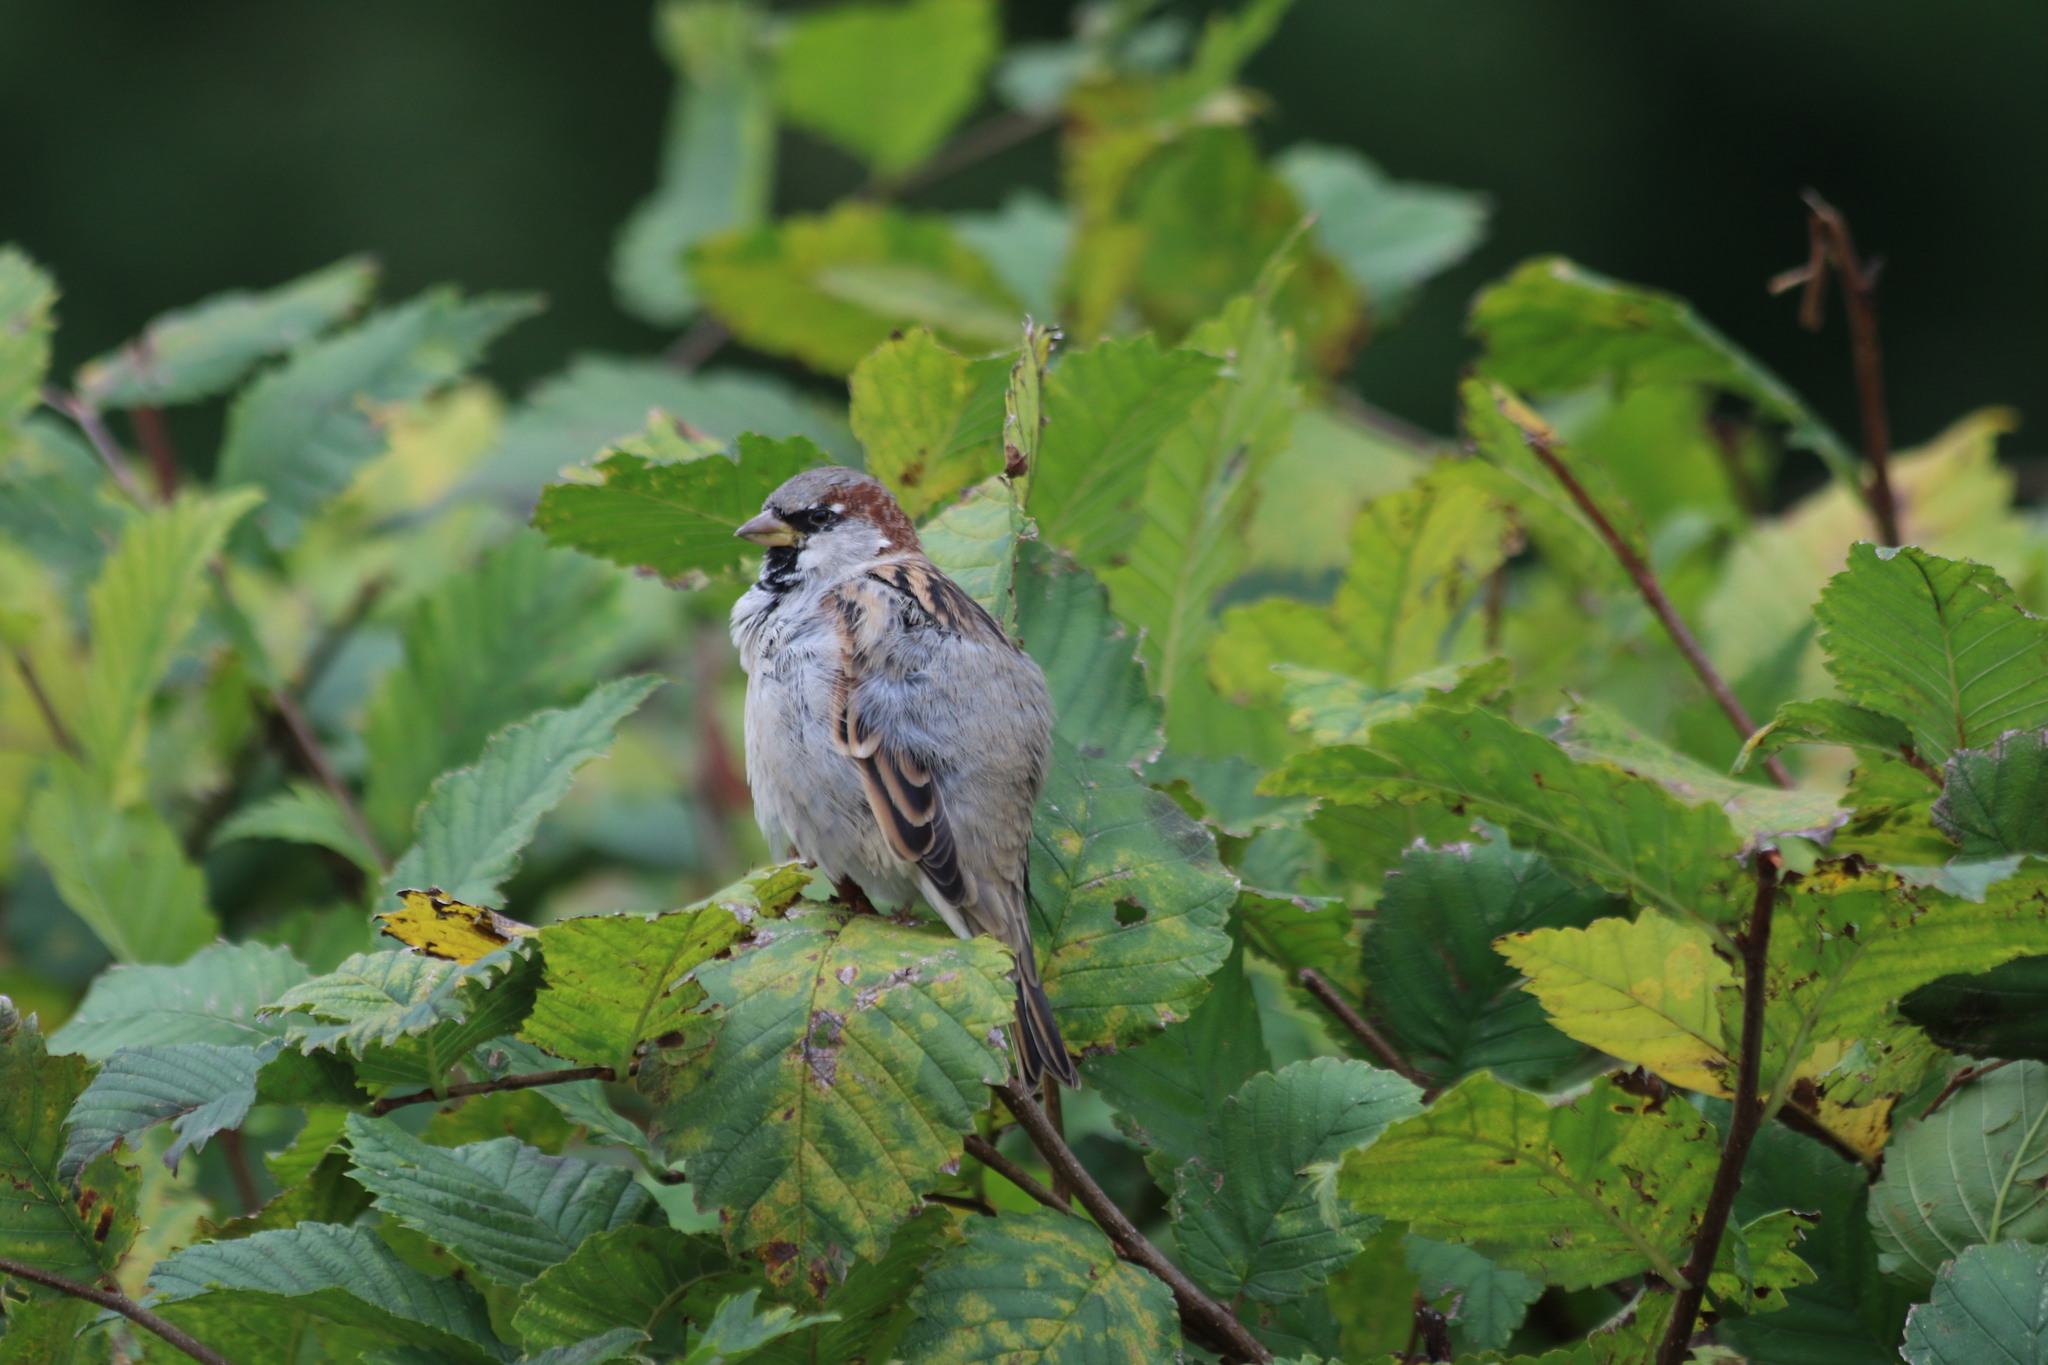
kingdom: Animalia
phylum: Chordata
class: Aves
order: Passeriformes
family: Passeridae
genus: Passer
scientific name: Passer domesticus
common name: House sparrow
